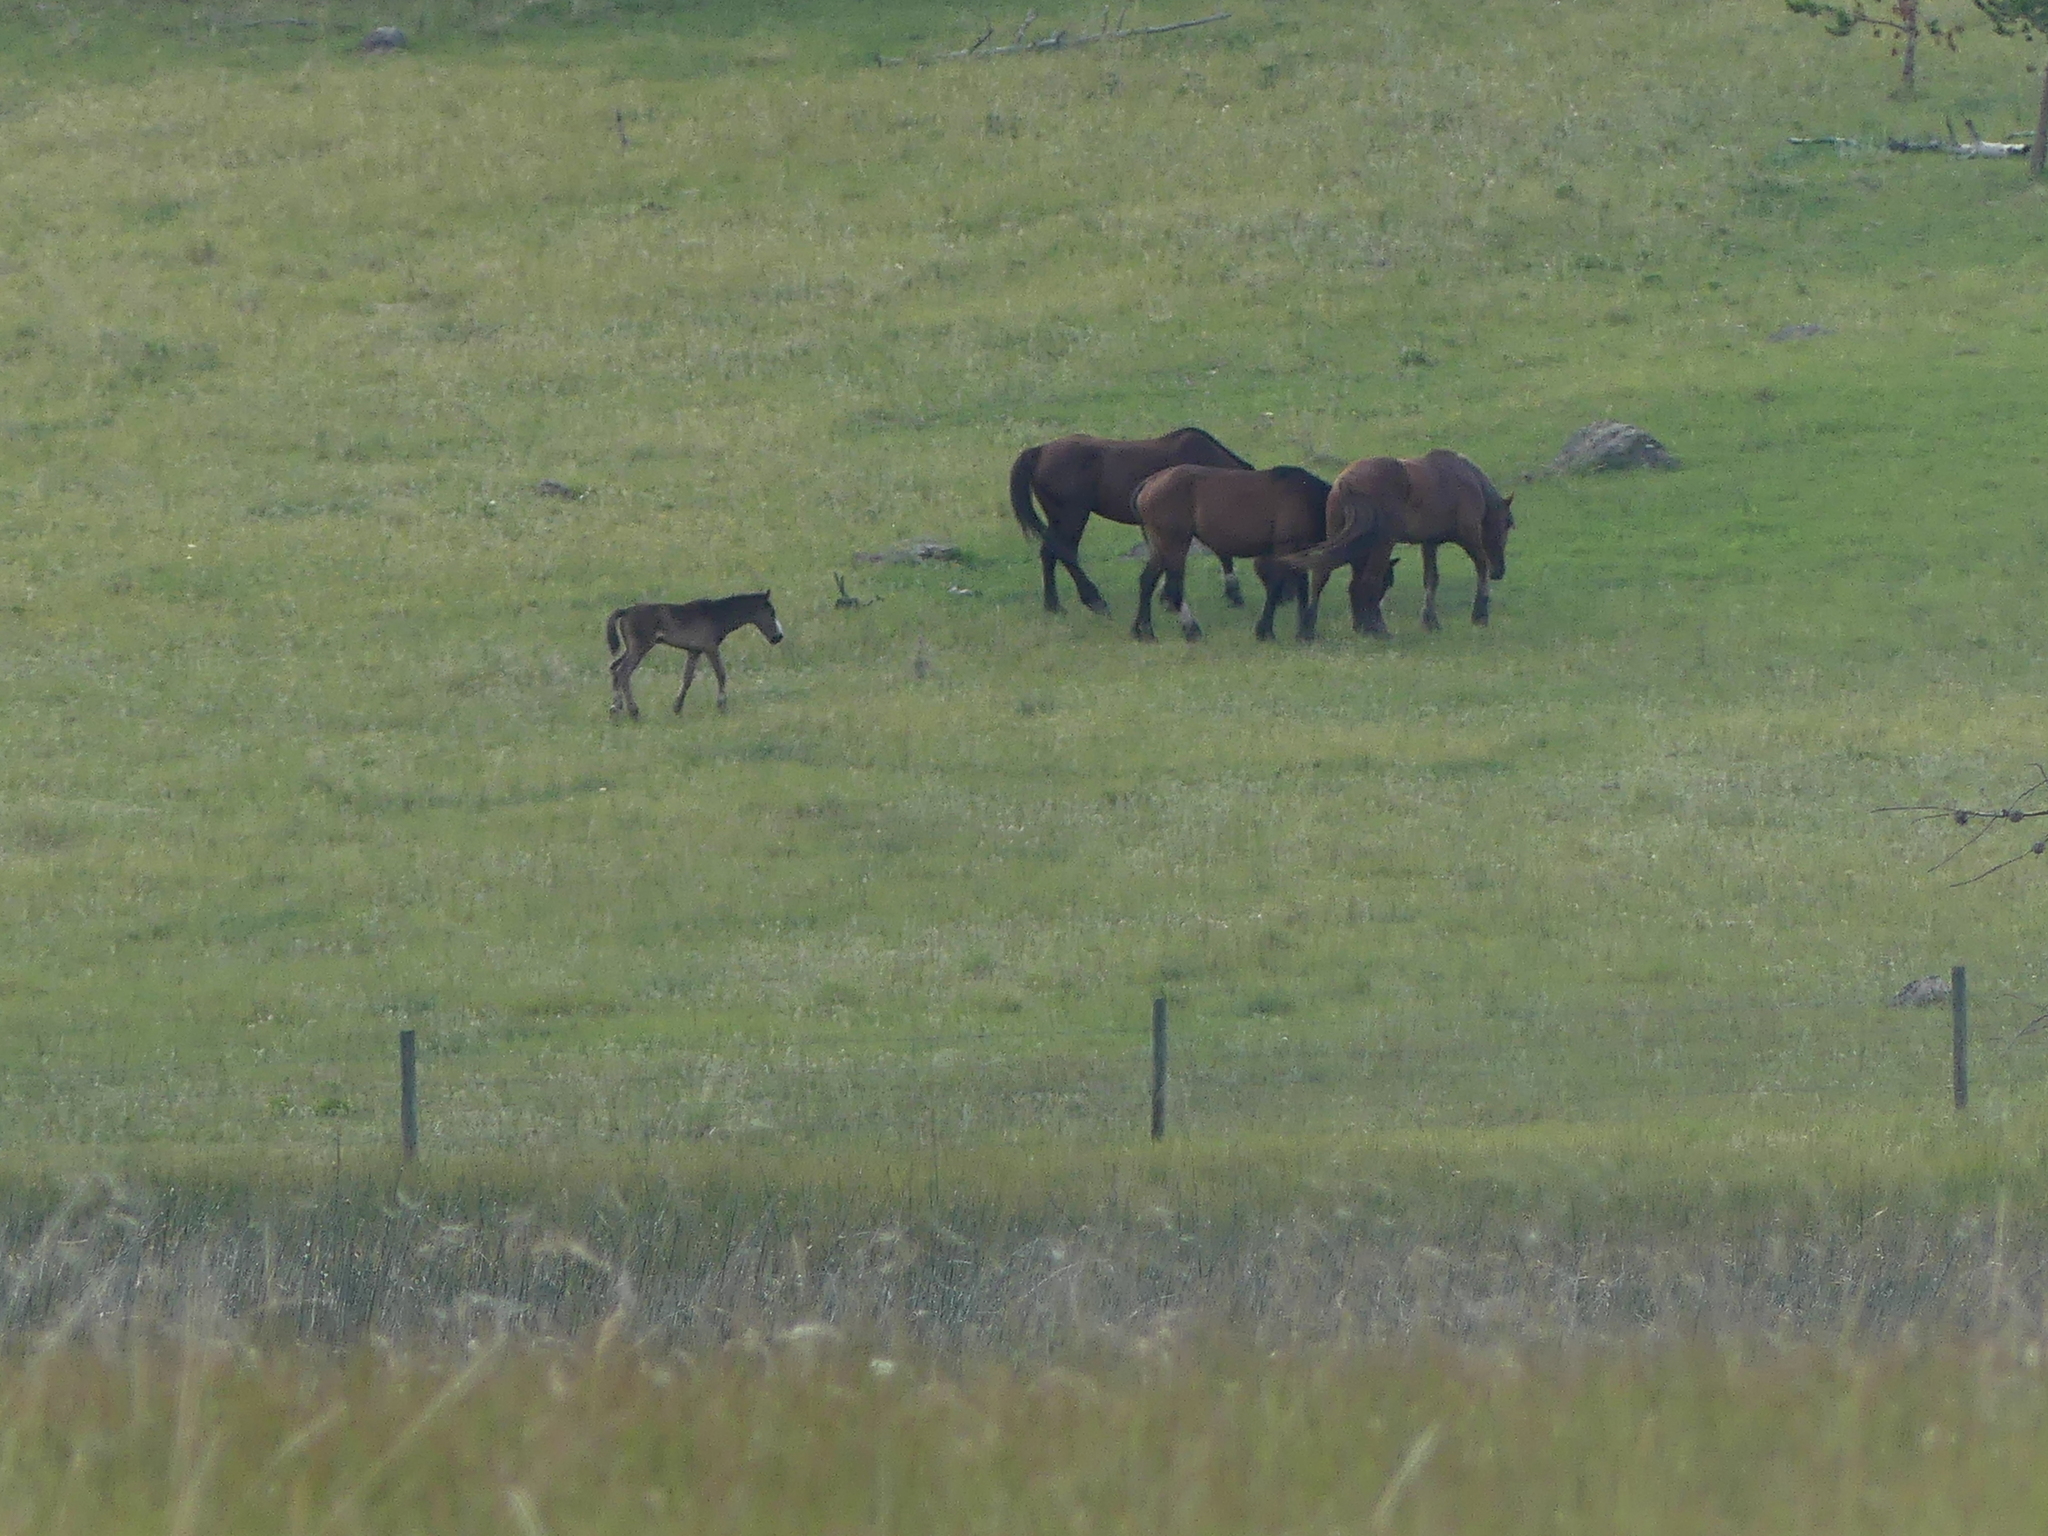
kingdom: Animalia
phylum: Chordata
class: Mammalia
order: Perissodactyla
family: Equidae
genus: Equus
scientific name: Equus caballus
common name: Horse
